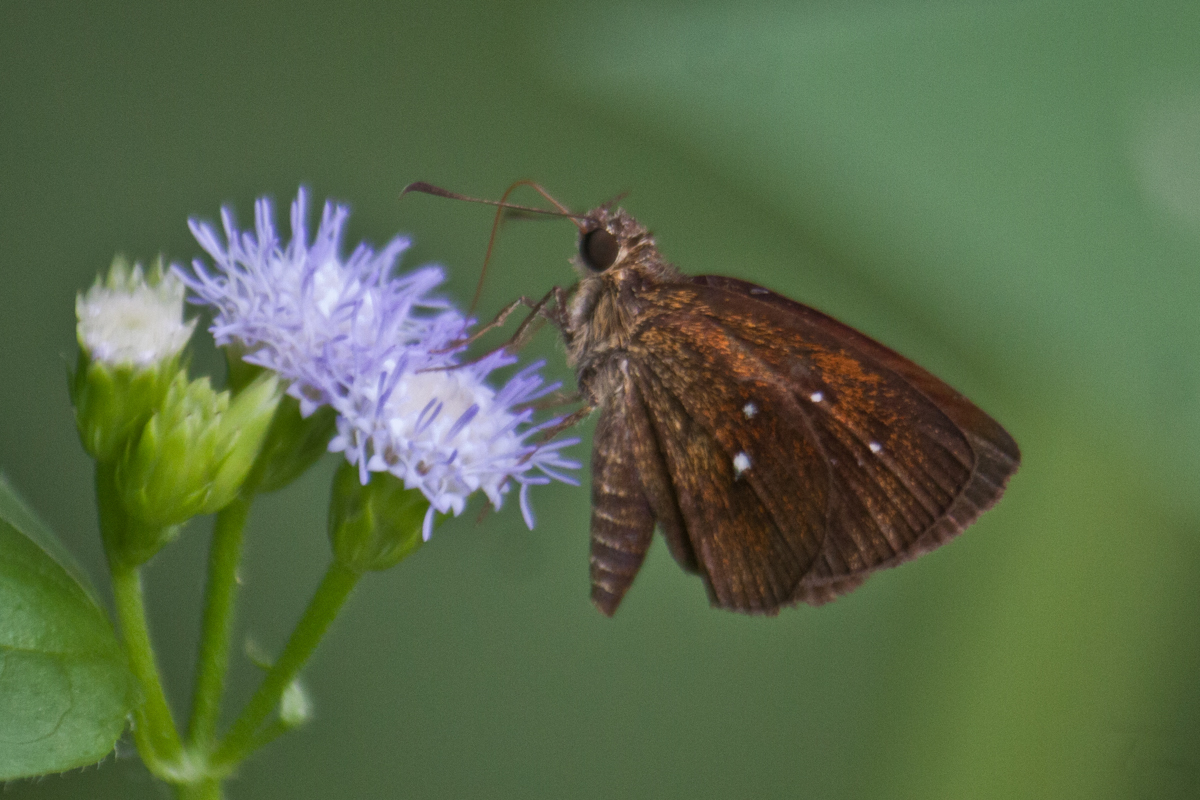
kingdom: Animalia
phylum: Arthropoda
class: Insecta
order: Lepidoptera
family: Hesperiidae
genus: Iambrix
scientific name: Iambrix salsala
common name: Chestnut bob
